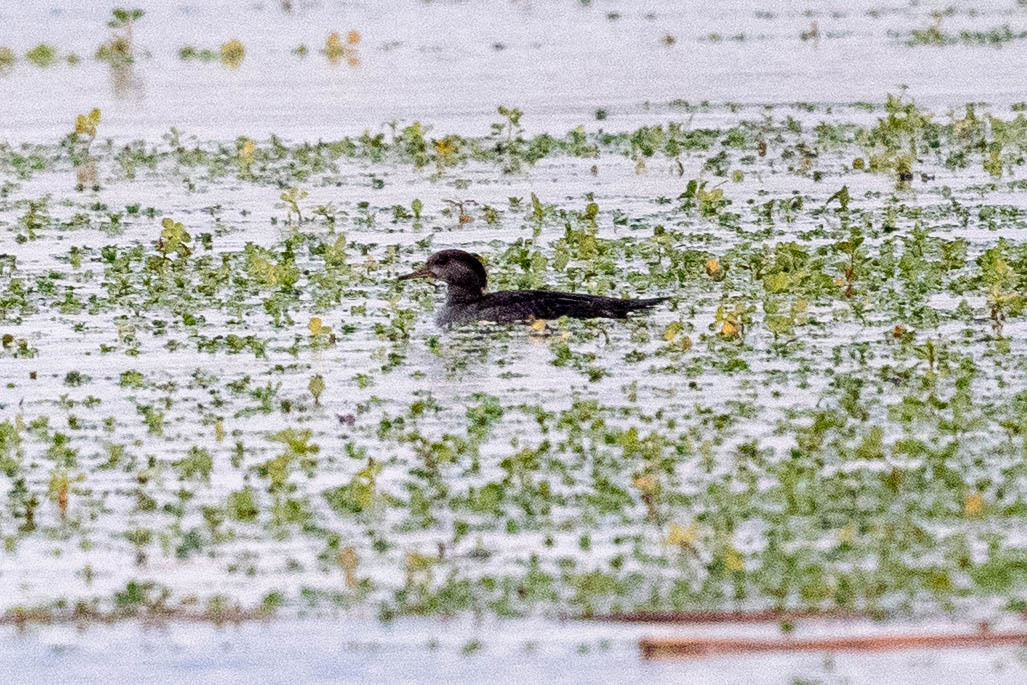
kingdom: Animalia
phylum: Chordata
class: Aves
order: Anseriformes
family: Anatidae
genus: Lophodytes
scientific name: Lophodytes cucullatus
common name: Hooded merganser
